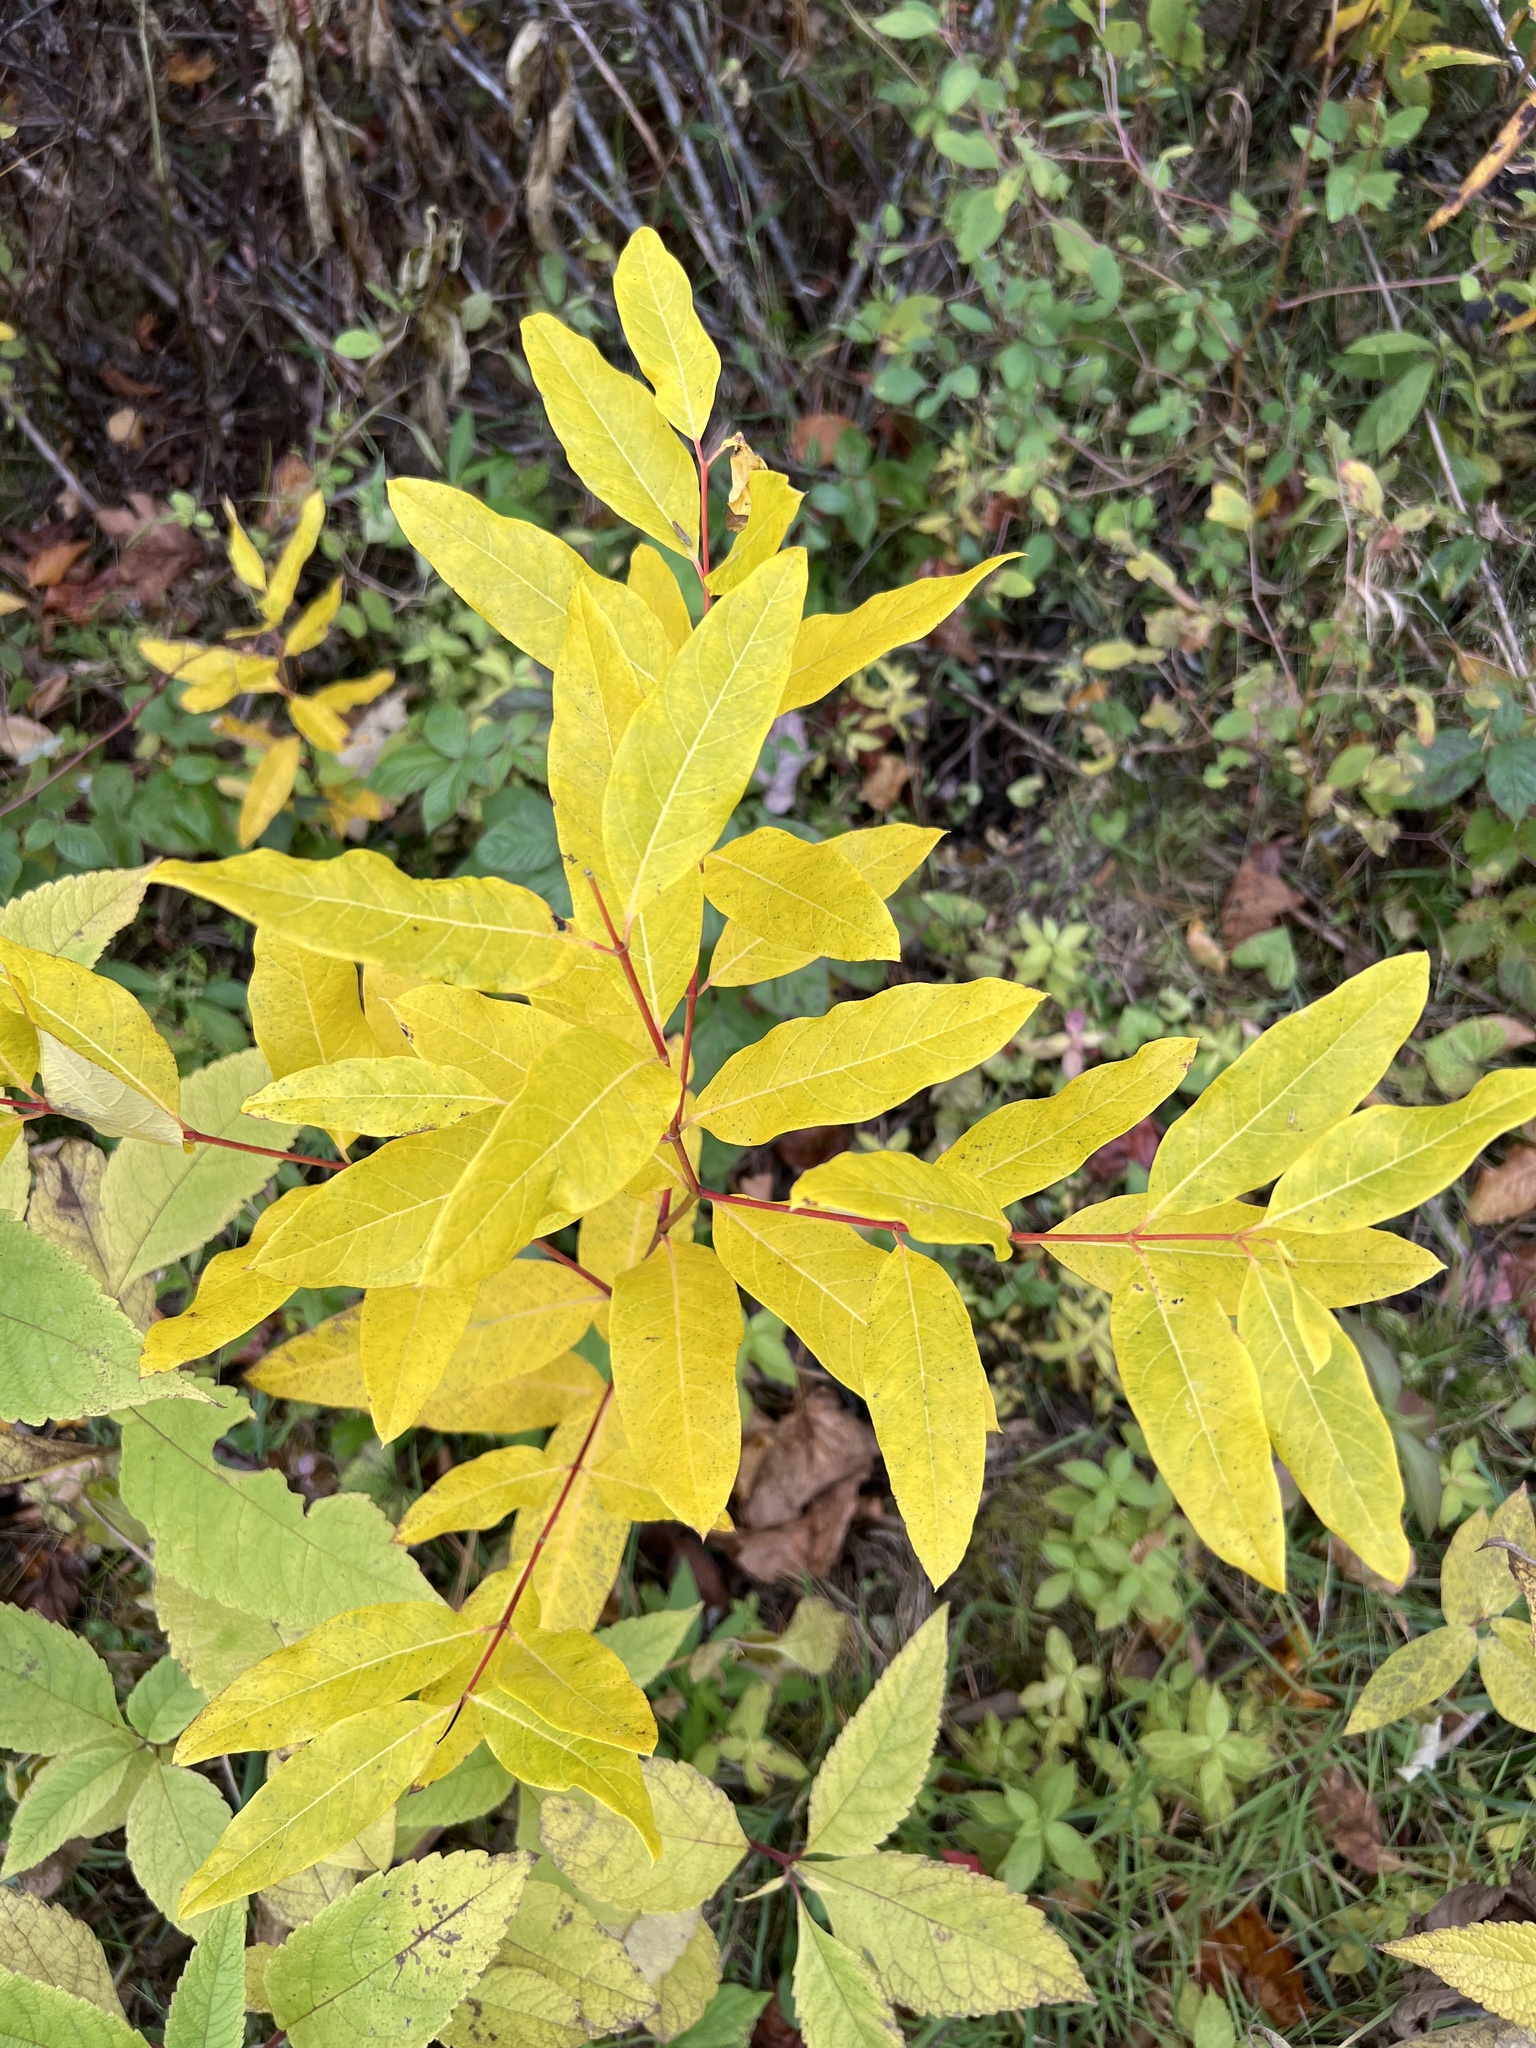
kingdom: Plantae
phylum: Tracheophyta
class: Magnoliopsida
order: Gentianales
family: Apocynaceae
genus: Apocynum
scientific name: Apocynum cannabinum
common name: Hemp dogbane
